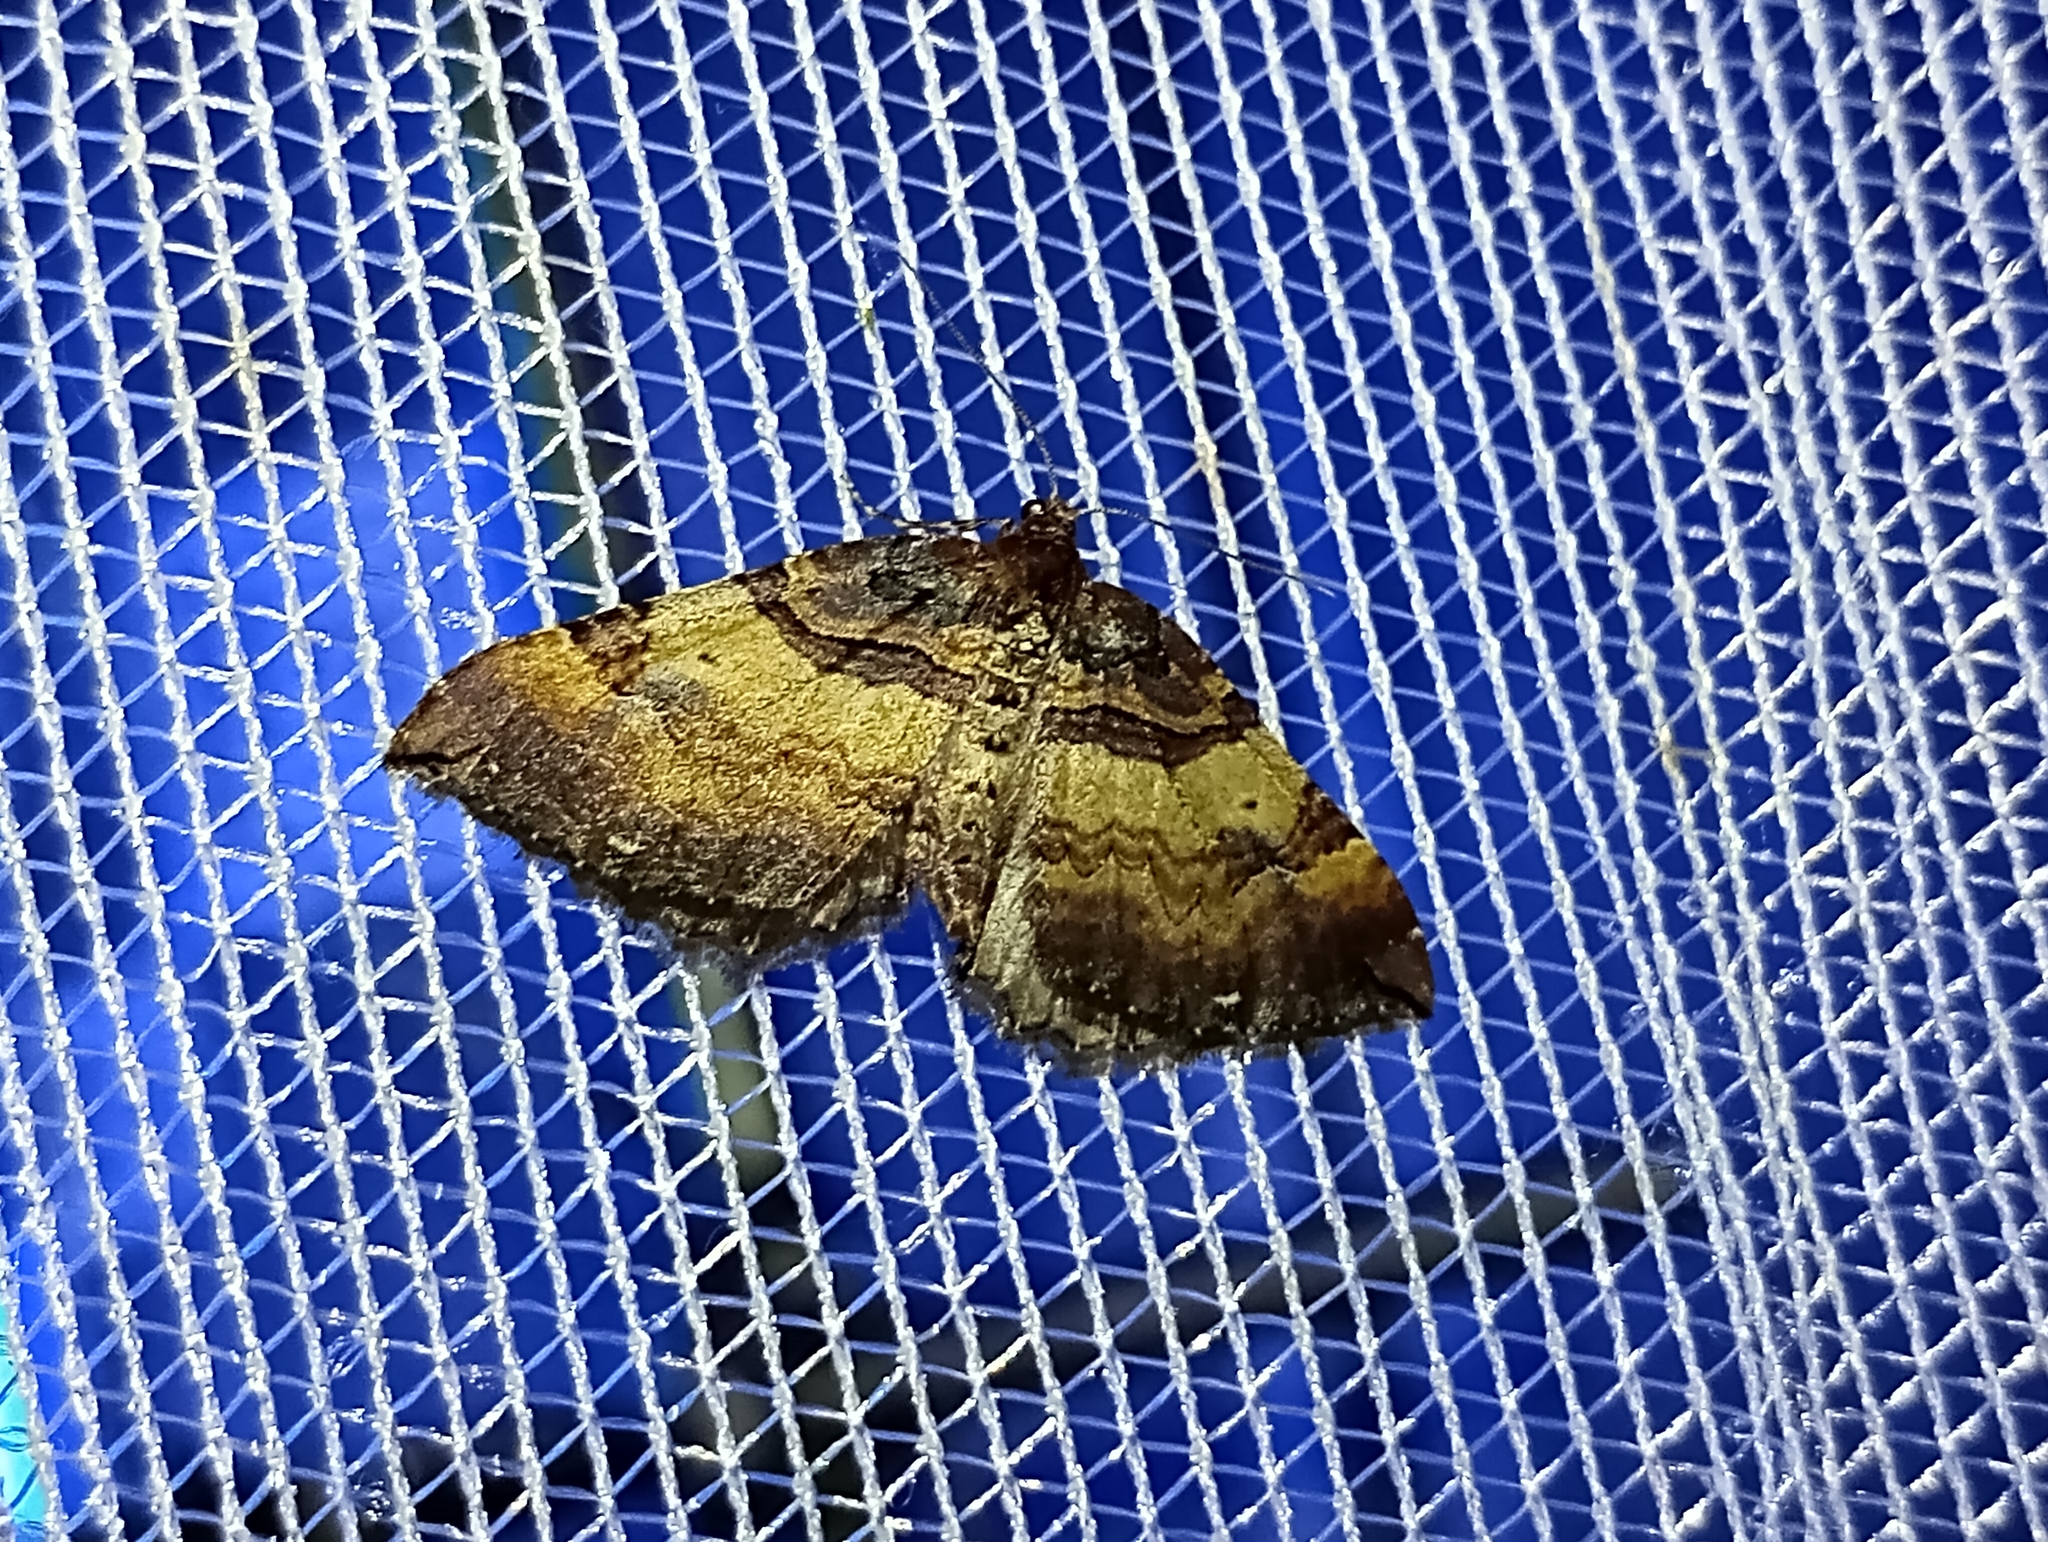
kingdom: Animalia
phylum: Arthropoda
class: Insecta
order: Lepidoptera
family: Geometridae
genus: Anticlea
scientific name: Anticlea badiata
